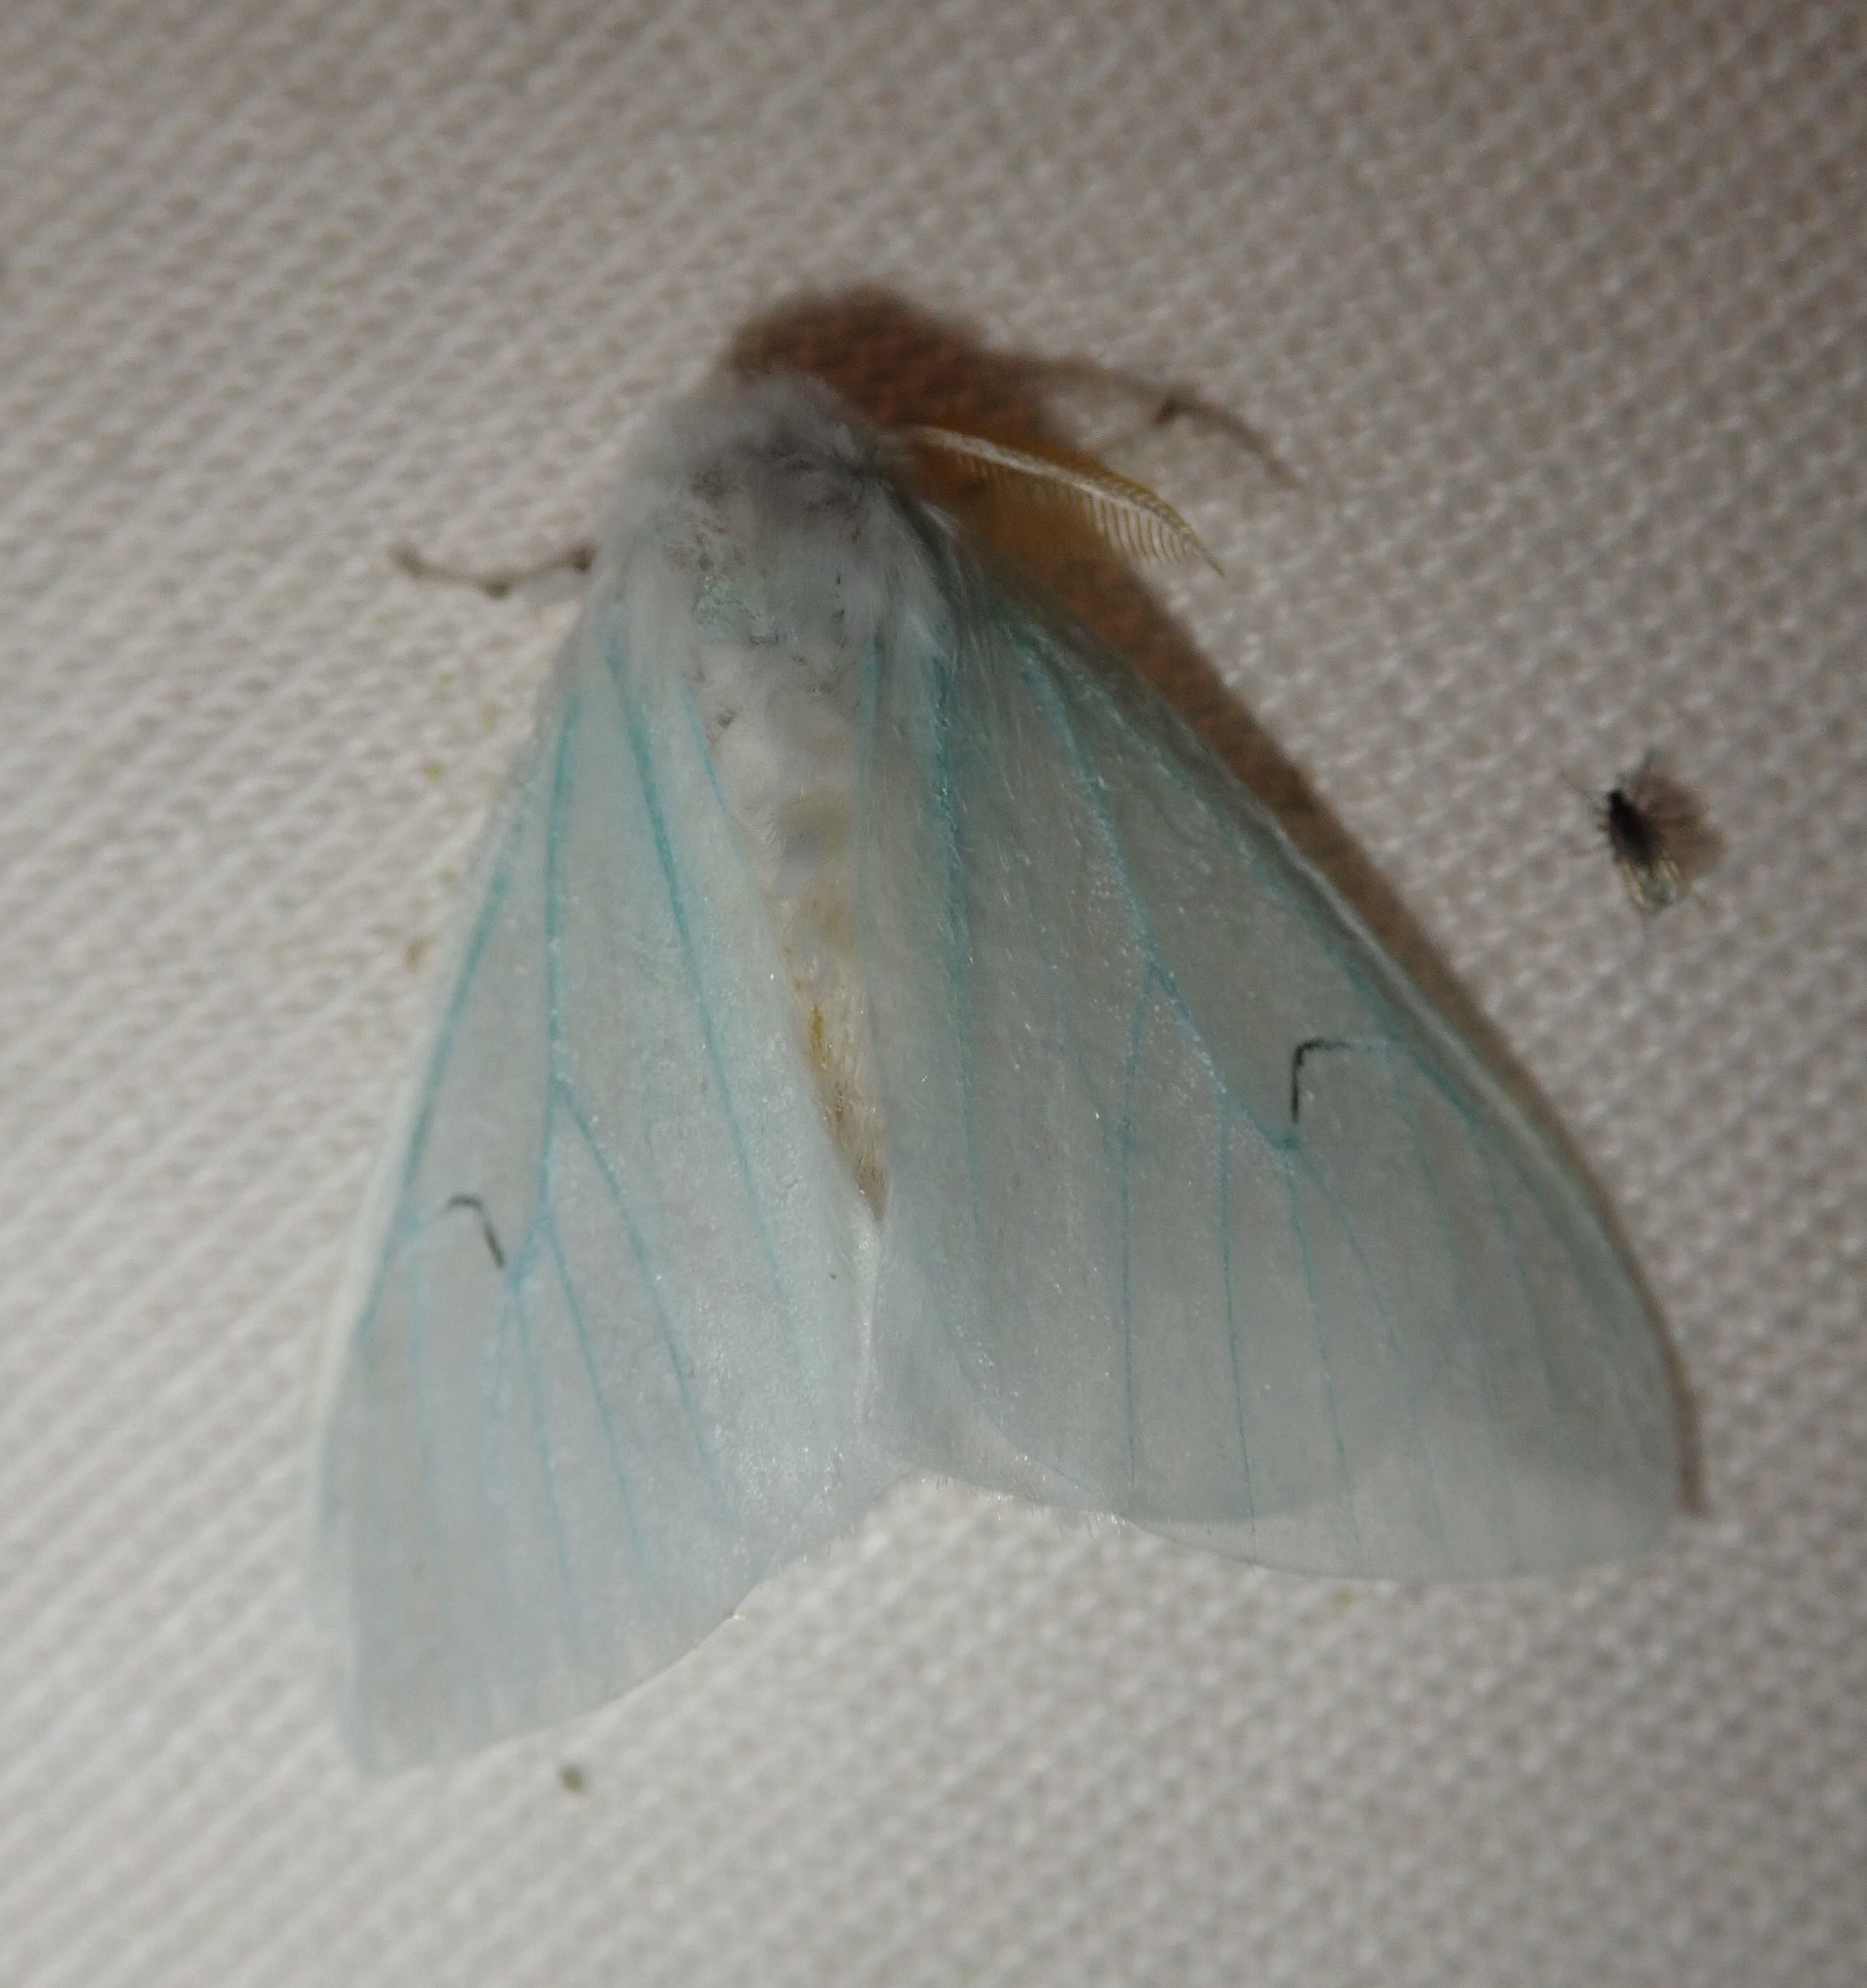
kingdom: Animalia
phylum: Arthropoda
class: Insecta
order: Lepidoptera
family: Erebidae
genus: Arctornis
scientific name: Arctornis l-nigrum
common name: Black v moth
